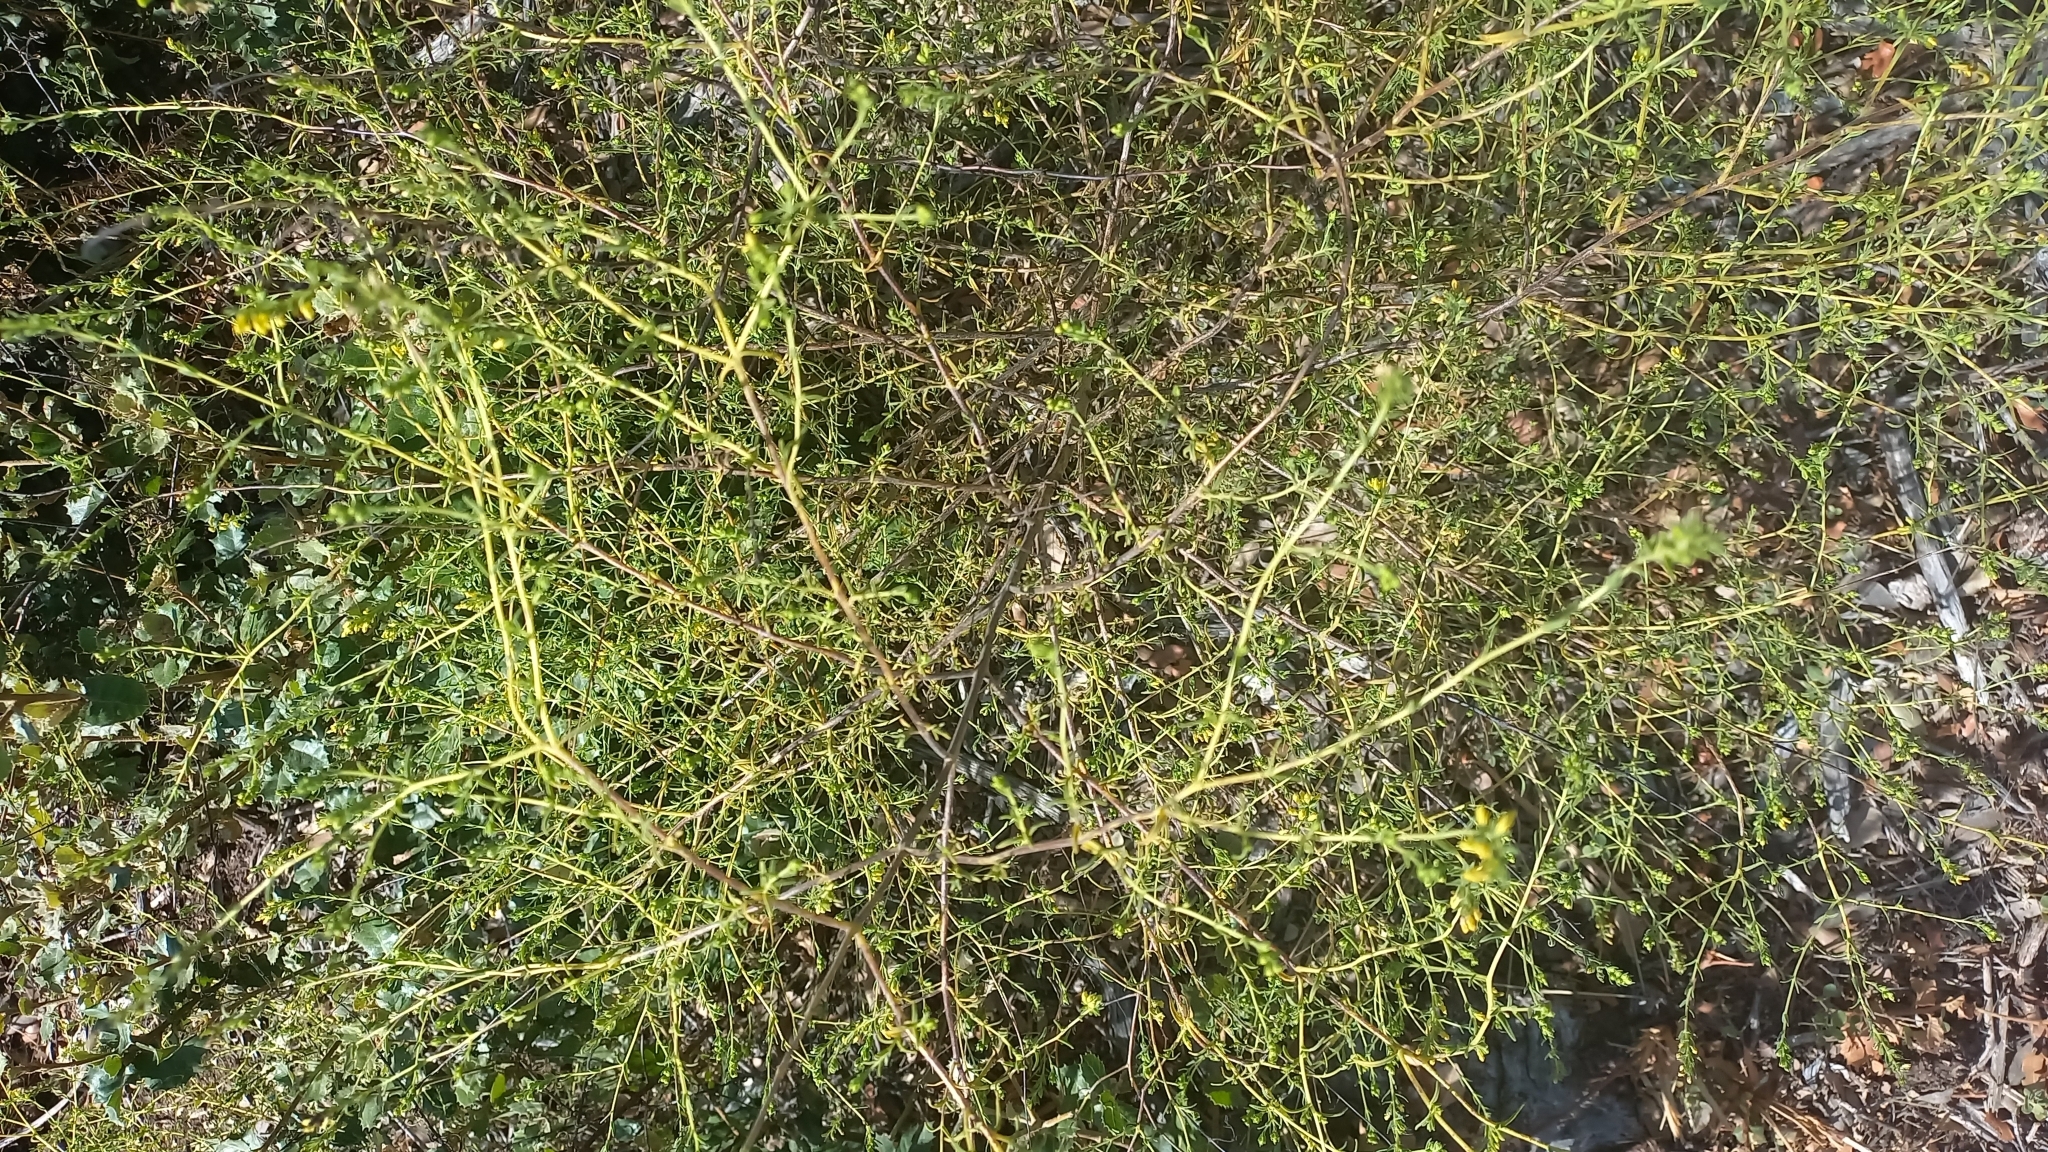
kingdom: Plantae
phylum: Tracheophyta
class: Magnoliopsida
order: Lamiales
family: Orobanchaceae
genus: Odontites
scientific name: Odontites viscosus
